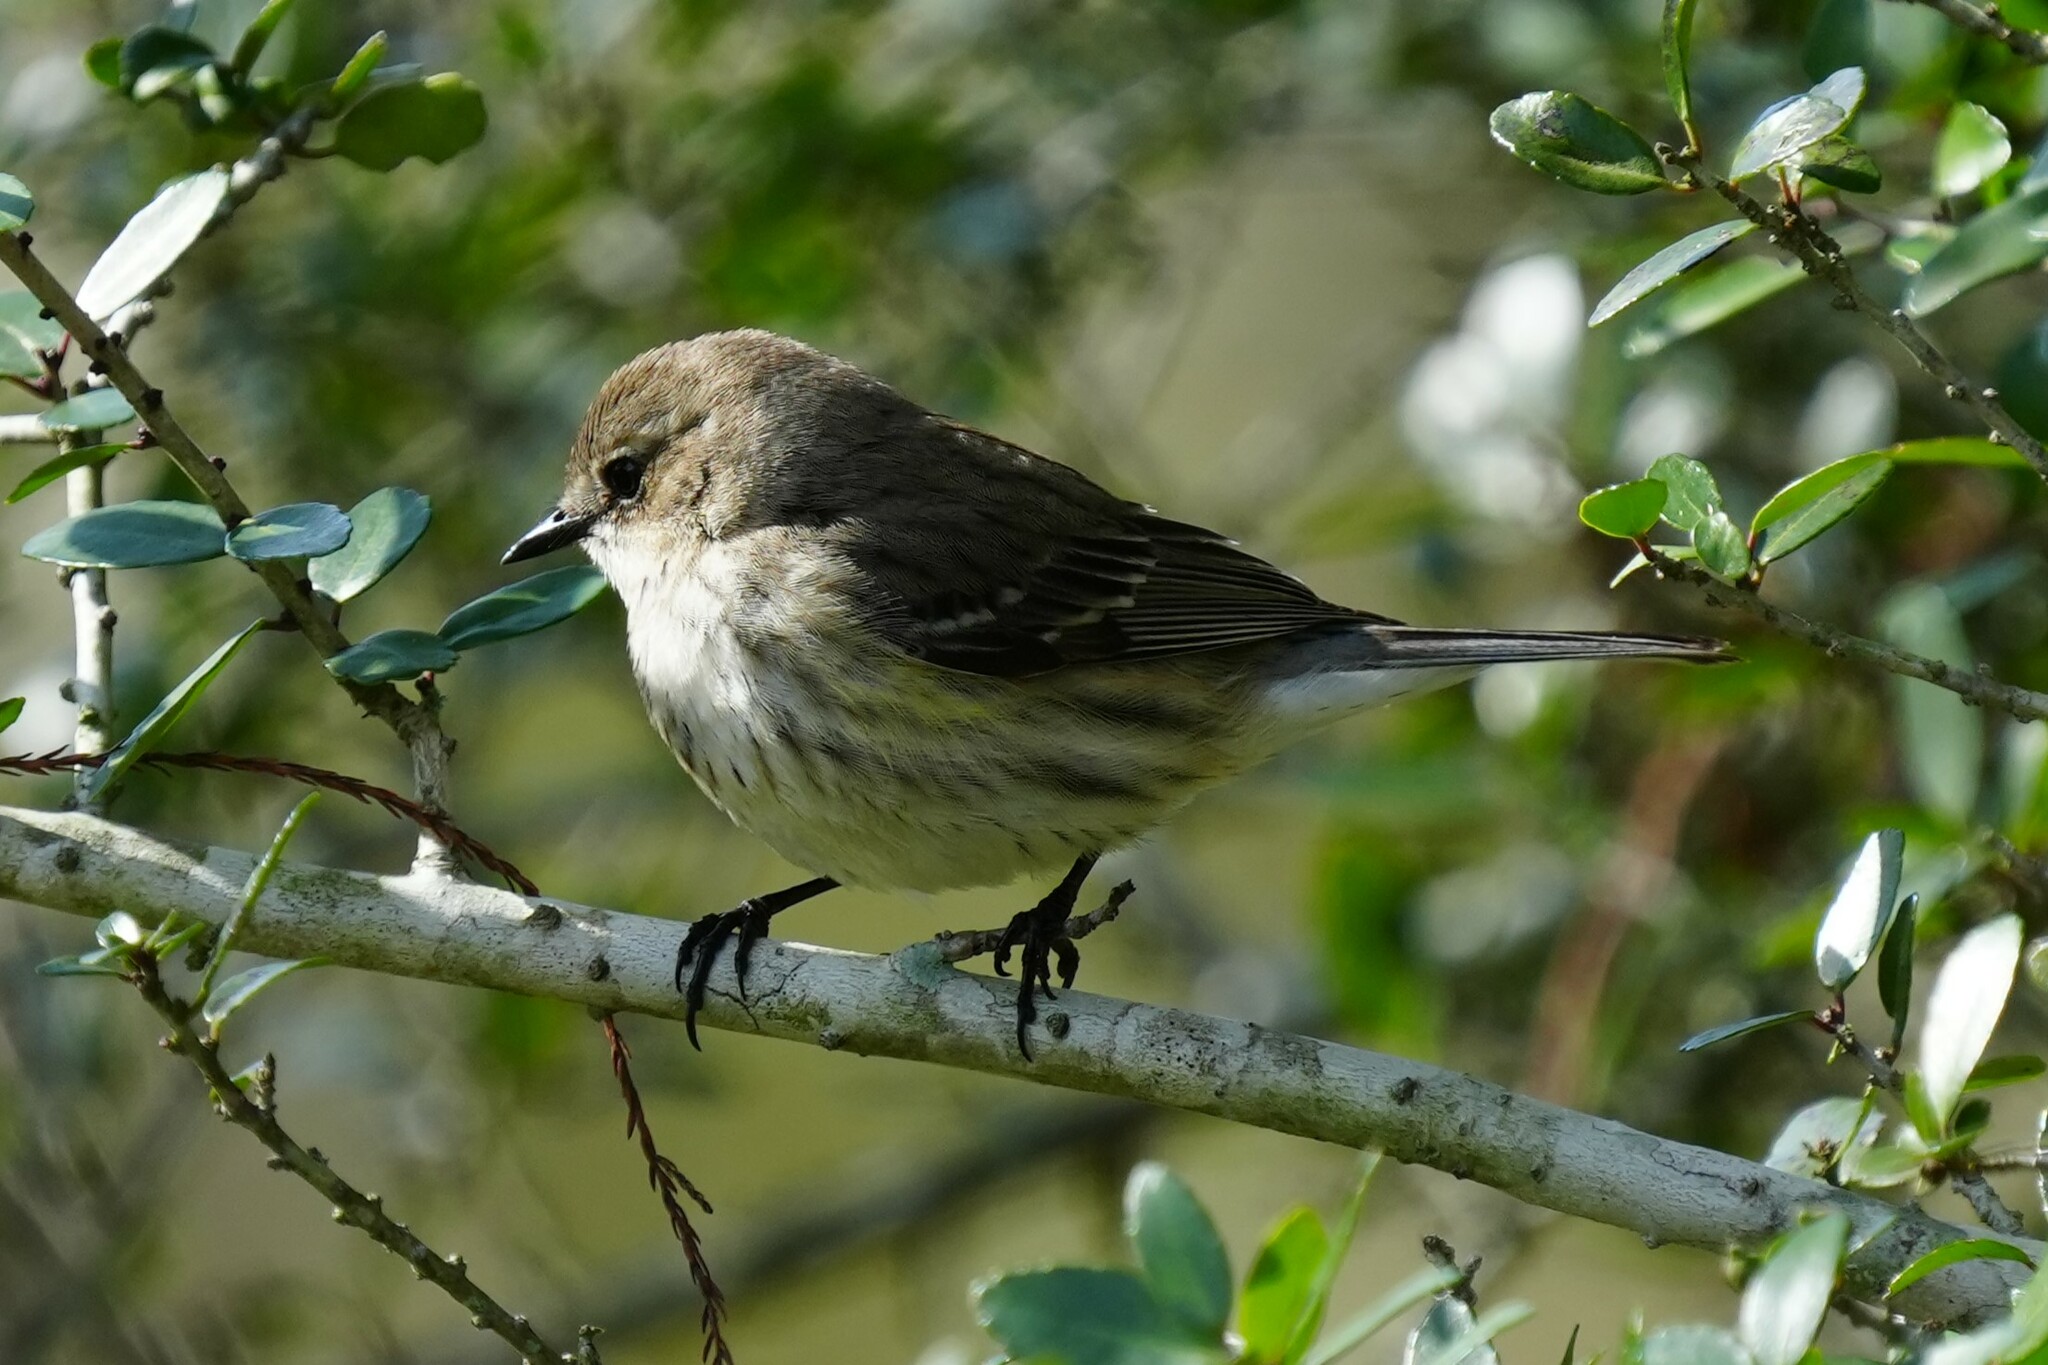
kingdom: Animalia
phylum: Chordata
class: Aves
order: Passeriformes
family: Parulidae
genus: Setophaga
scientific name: Setophaga coronata
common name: Myrtle warbler
